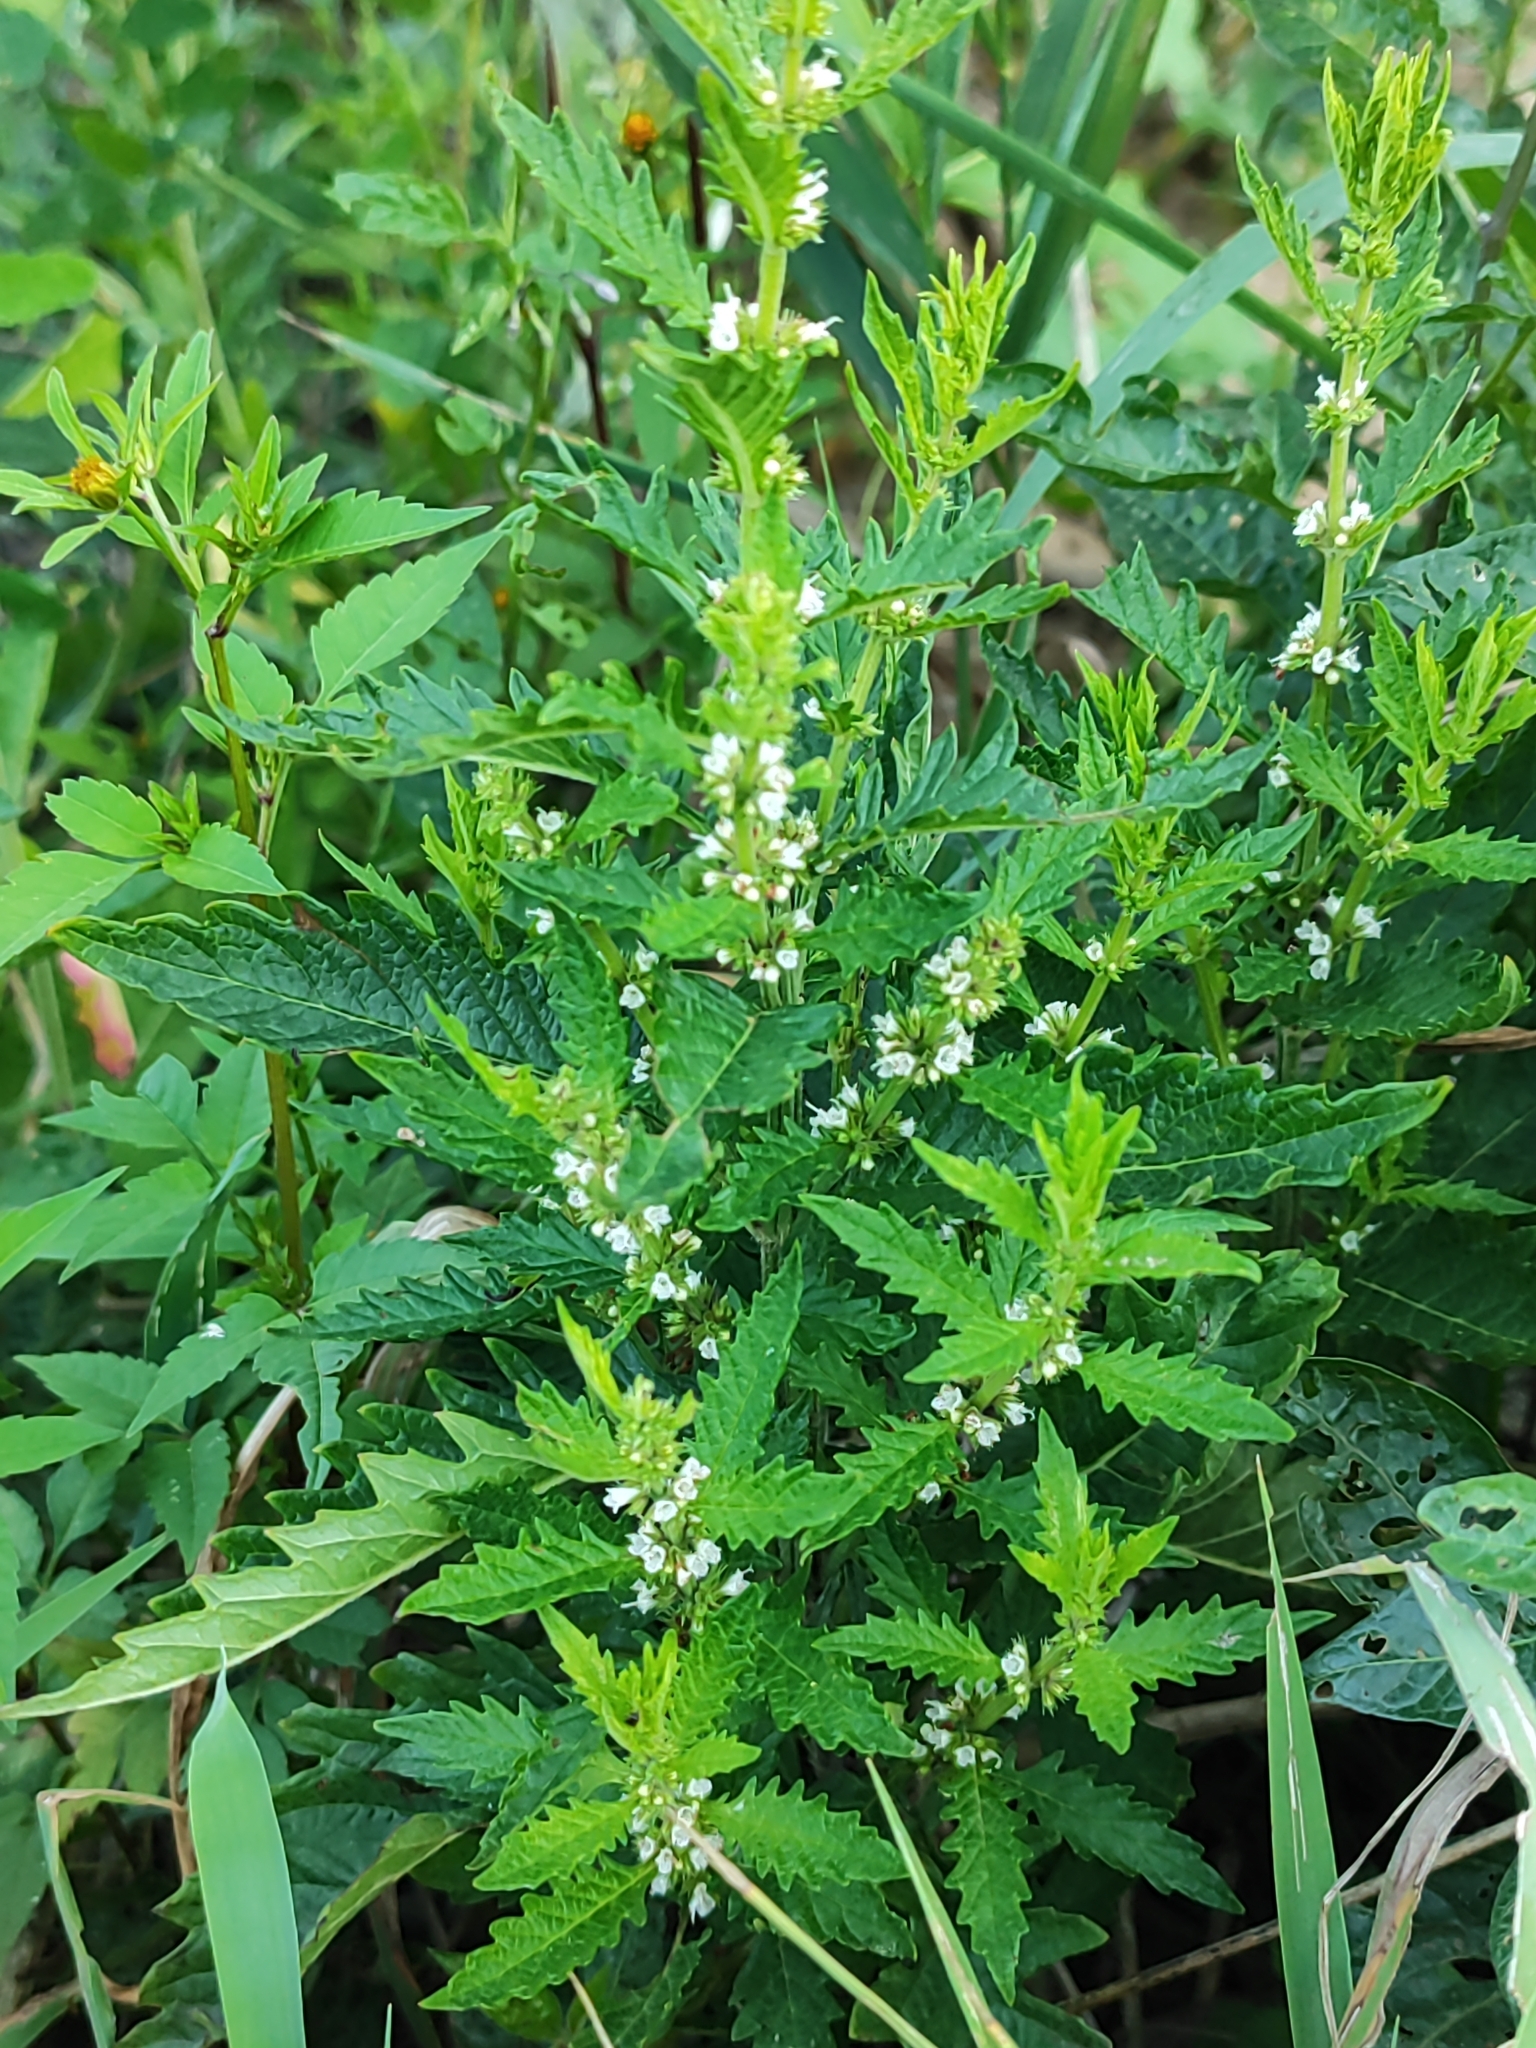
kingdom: Plantae
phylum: Tracheophyta
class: Magnoliopsida
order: Lamiales
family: Lamiaceae
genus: Lycopus
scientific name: Lycopus europaeus
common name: European bugleweed
